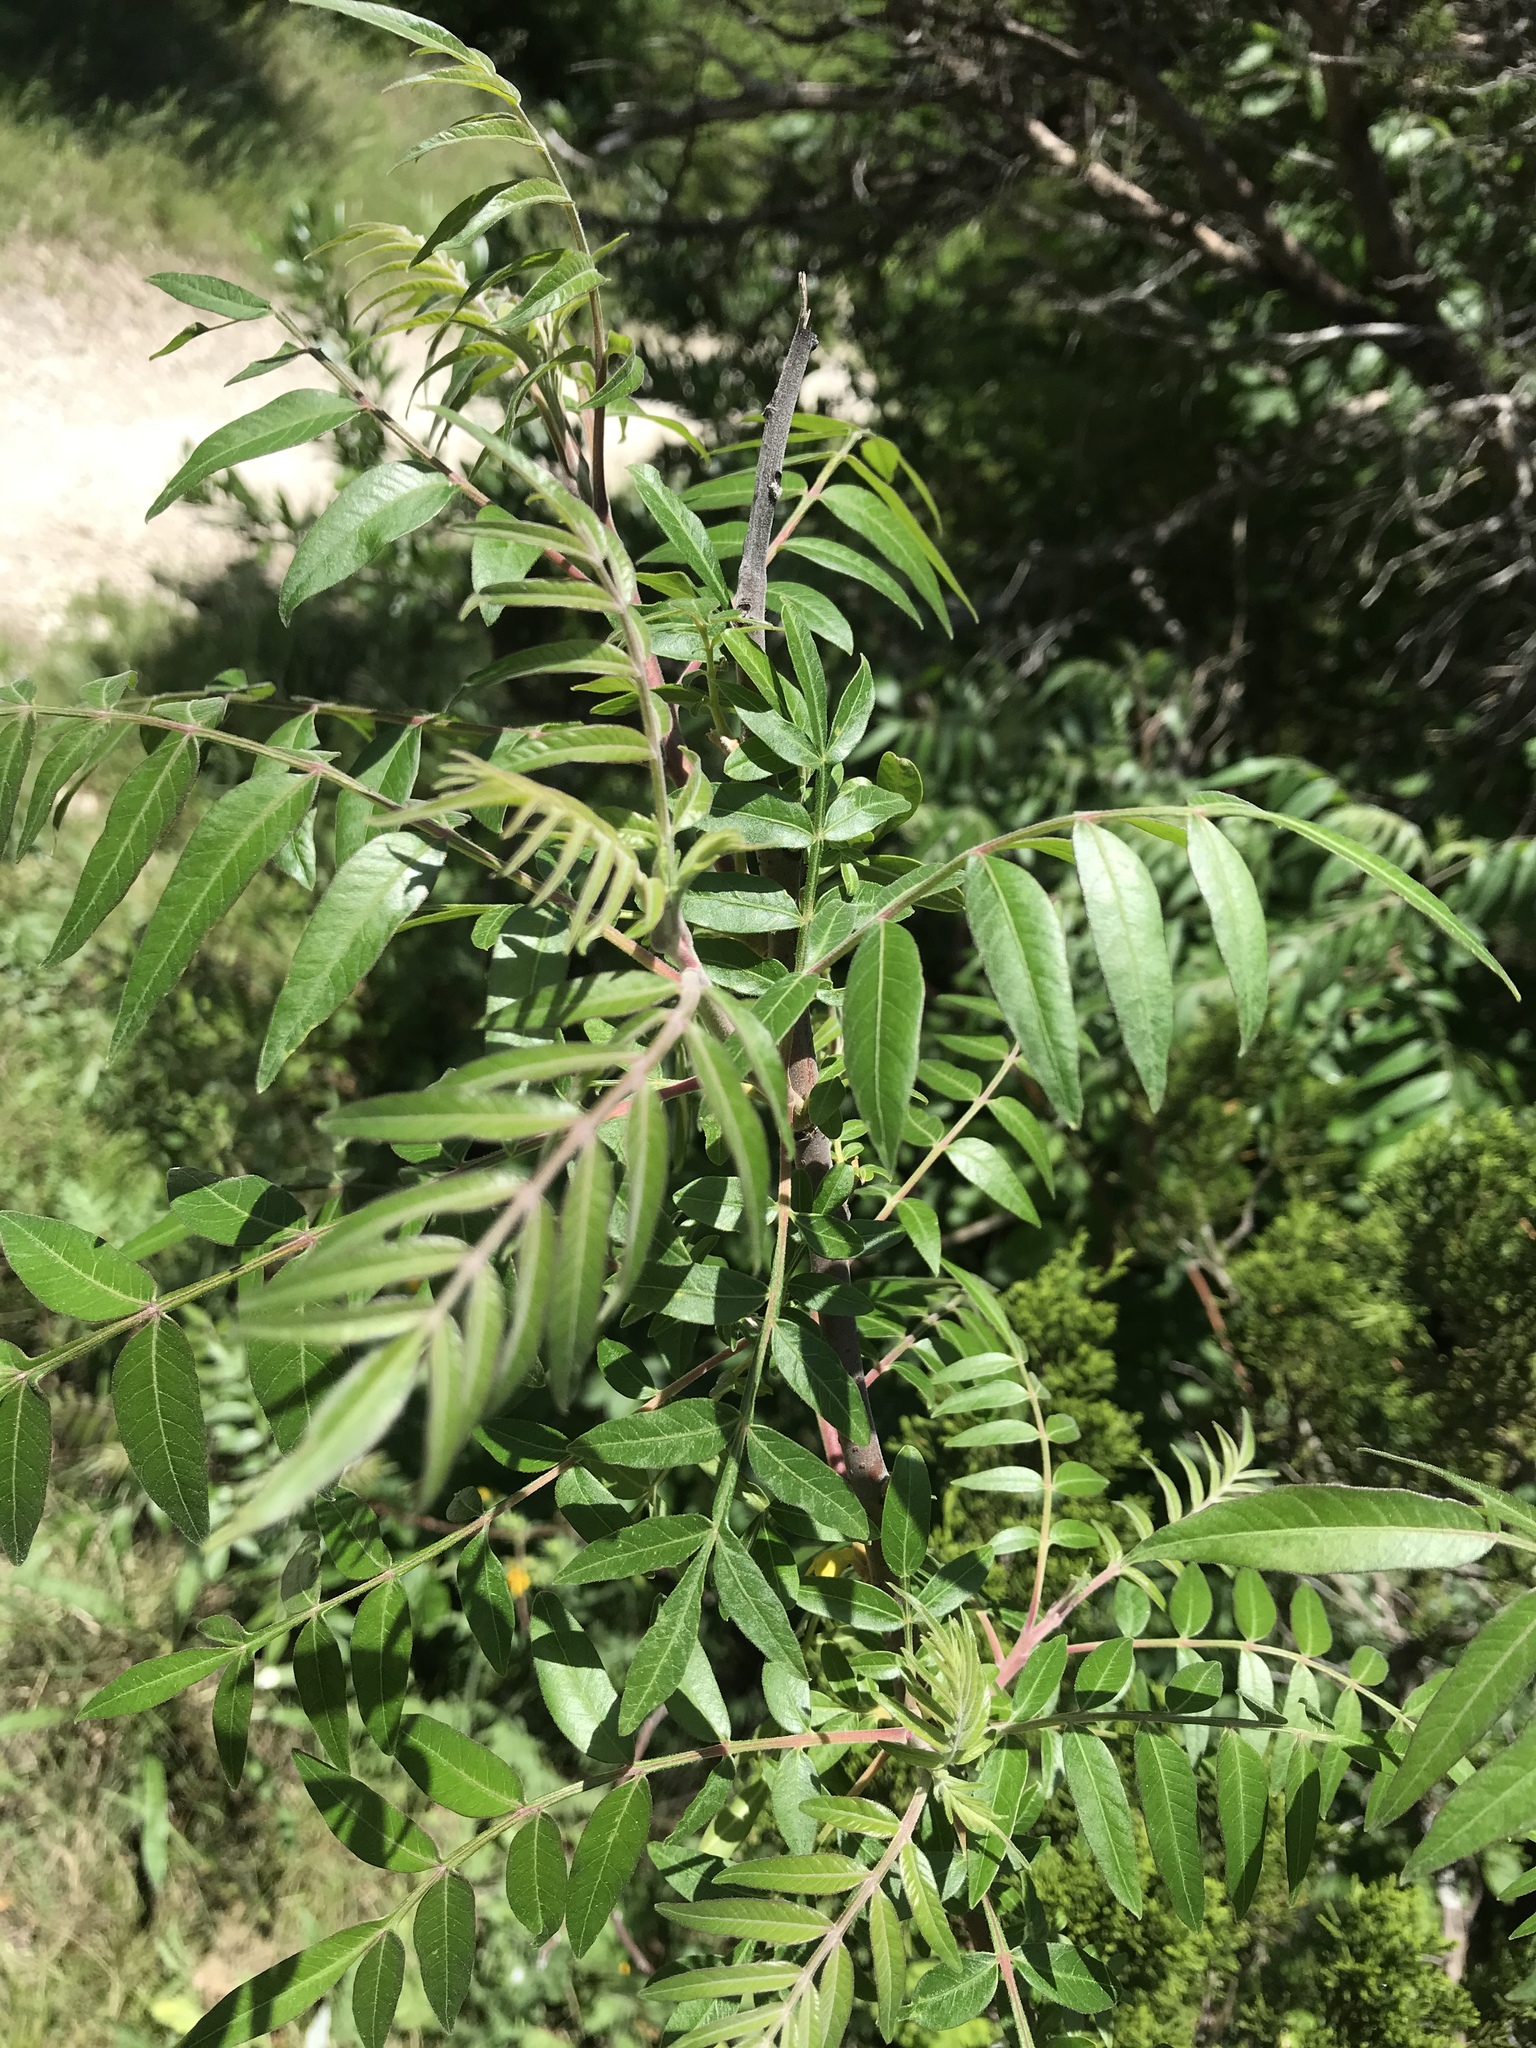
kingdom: Plantae
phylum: Tracheophyta
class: Magnoliopsida
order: Sapindales
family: Anacardiaceae
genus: Rhus
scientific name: Rhus copallina
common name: Shining sumac
